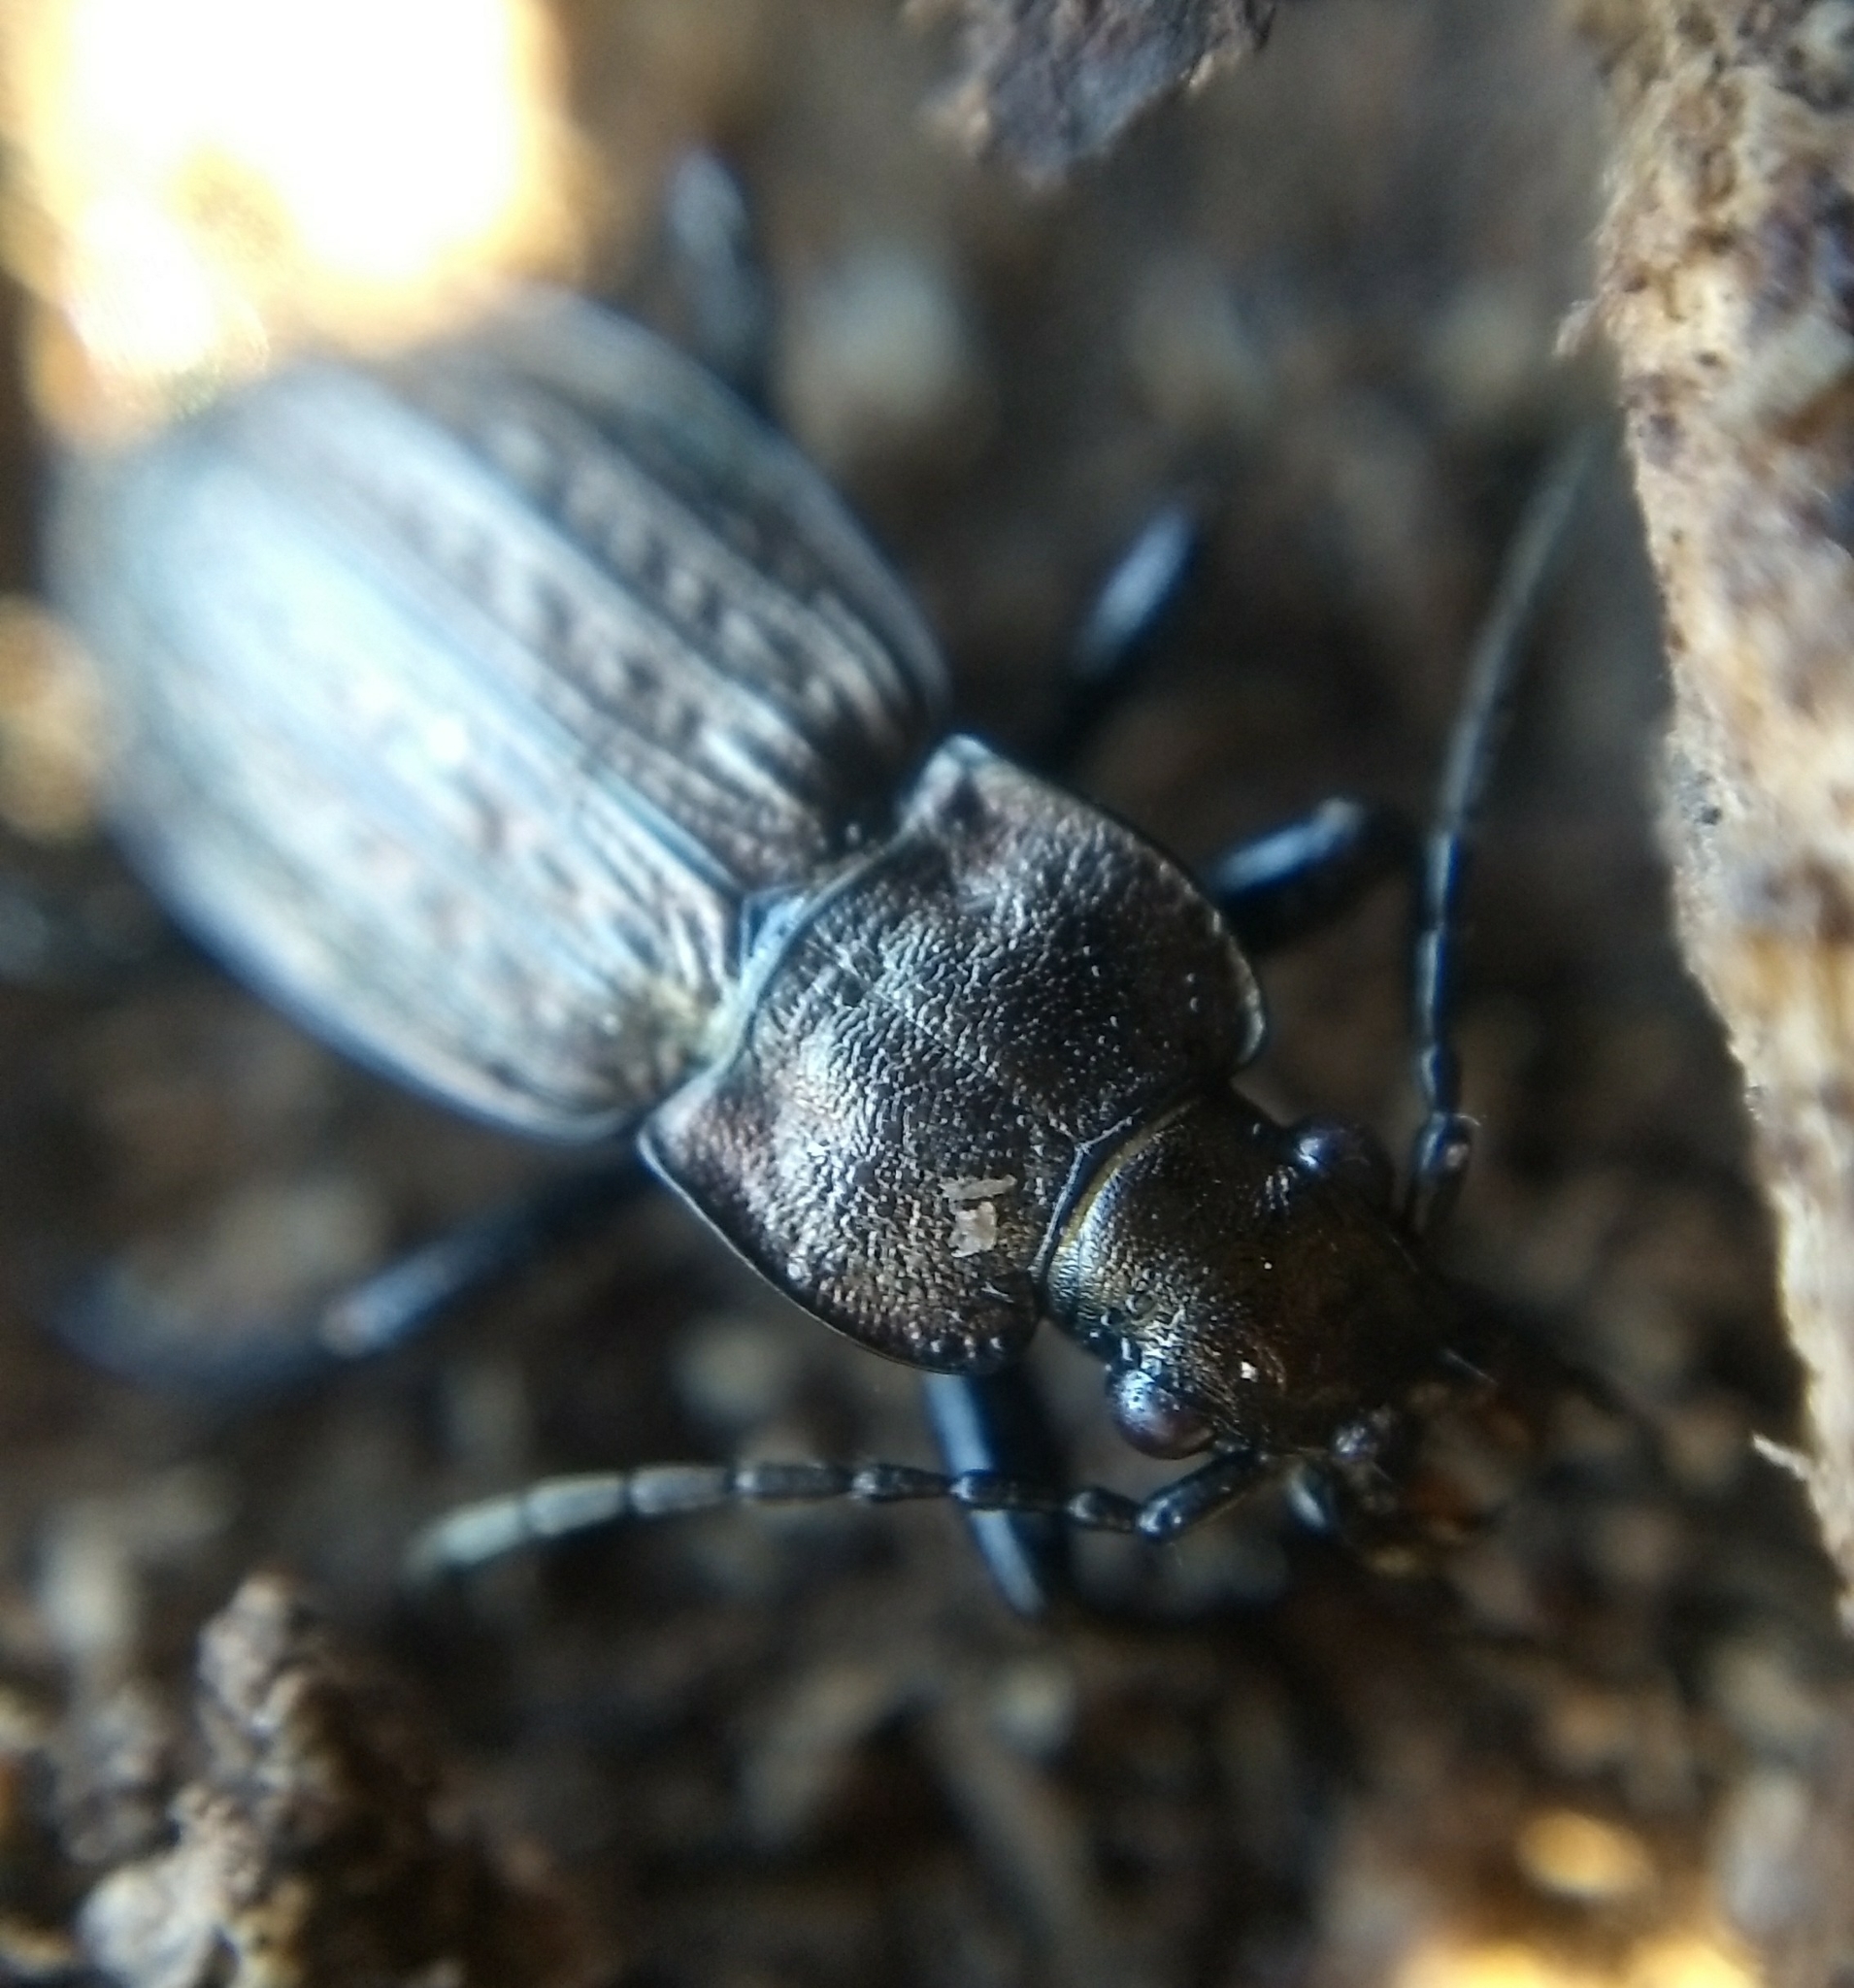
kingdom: Animalia
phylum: Arthropoda
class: Insecta
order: Coleoptera
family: Carabidae
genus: Carabus
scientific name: Carabus granulatus
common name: Granulate ground beetle
